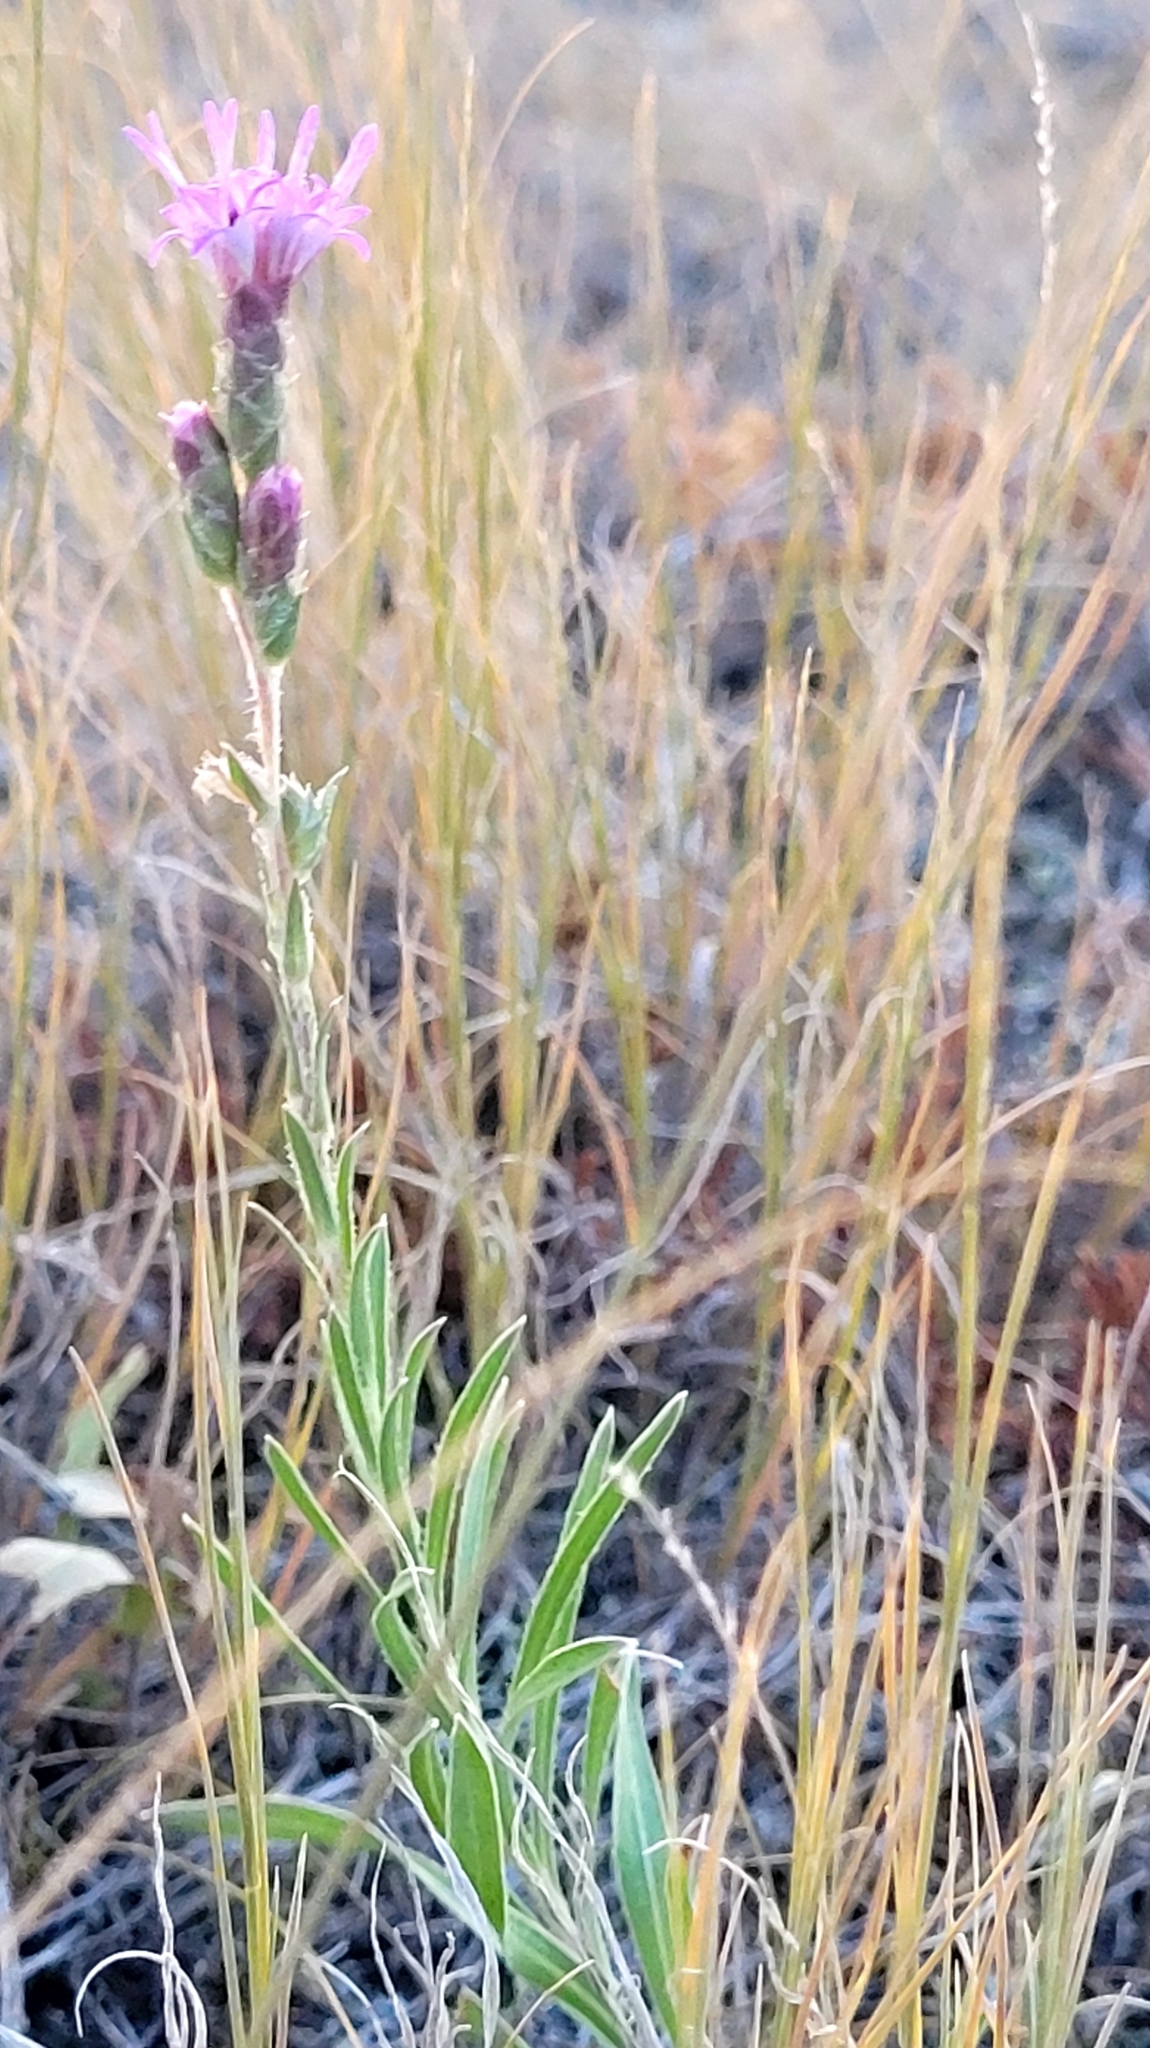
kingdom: Plantae
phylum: Tracheophyta
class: Magnoliopsida
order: Asterales
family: Asteraceae
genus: Liatris
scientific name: Liatris punctata
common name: Dotted gayfeather
